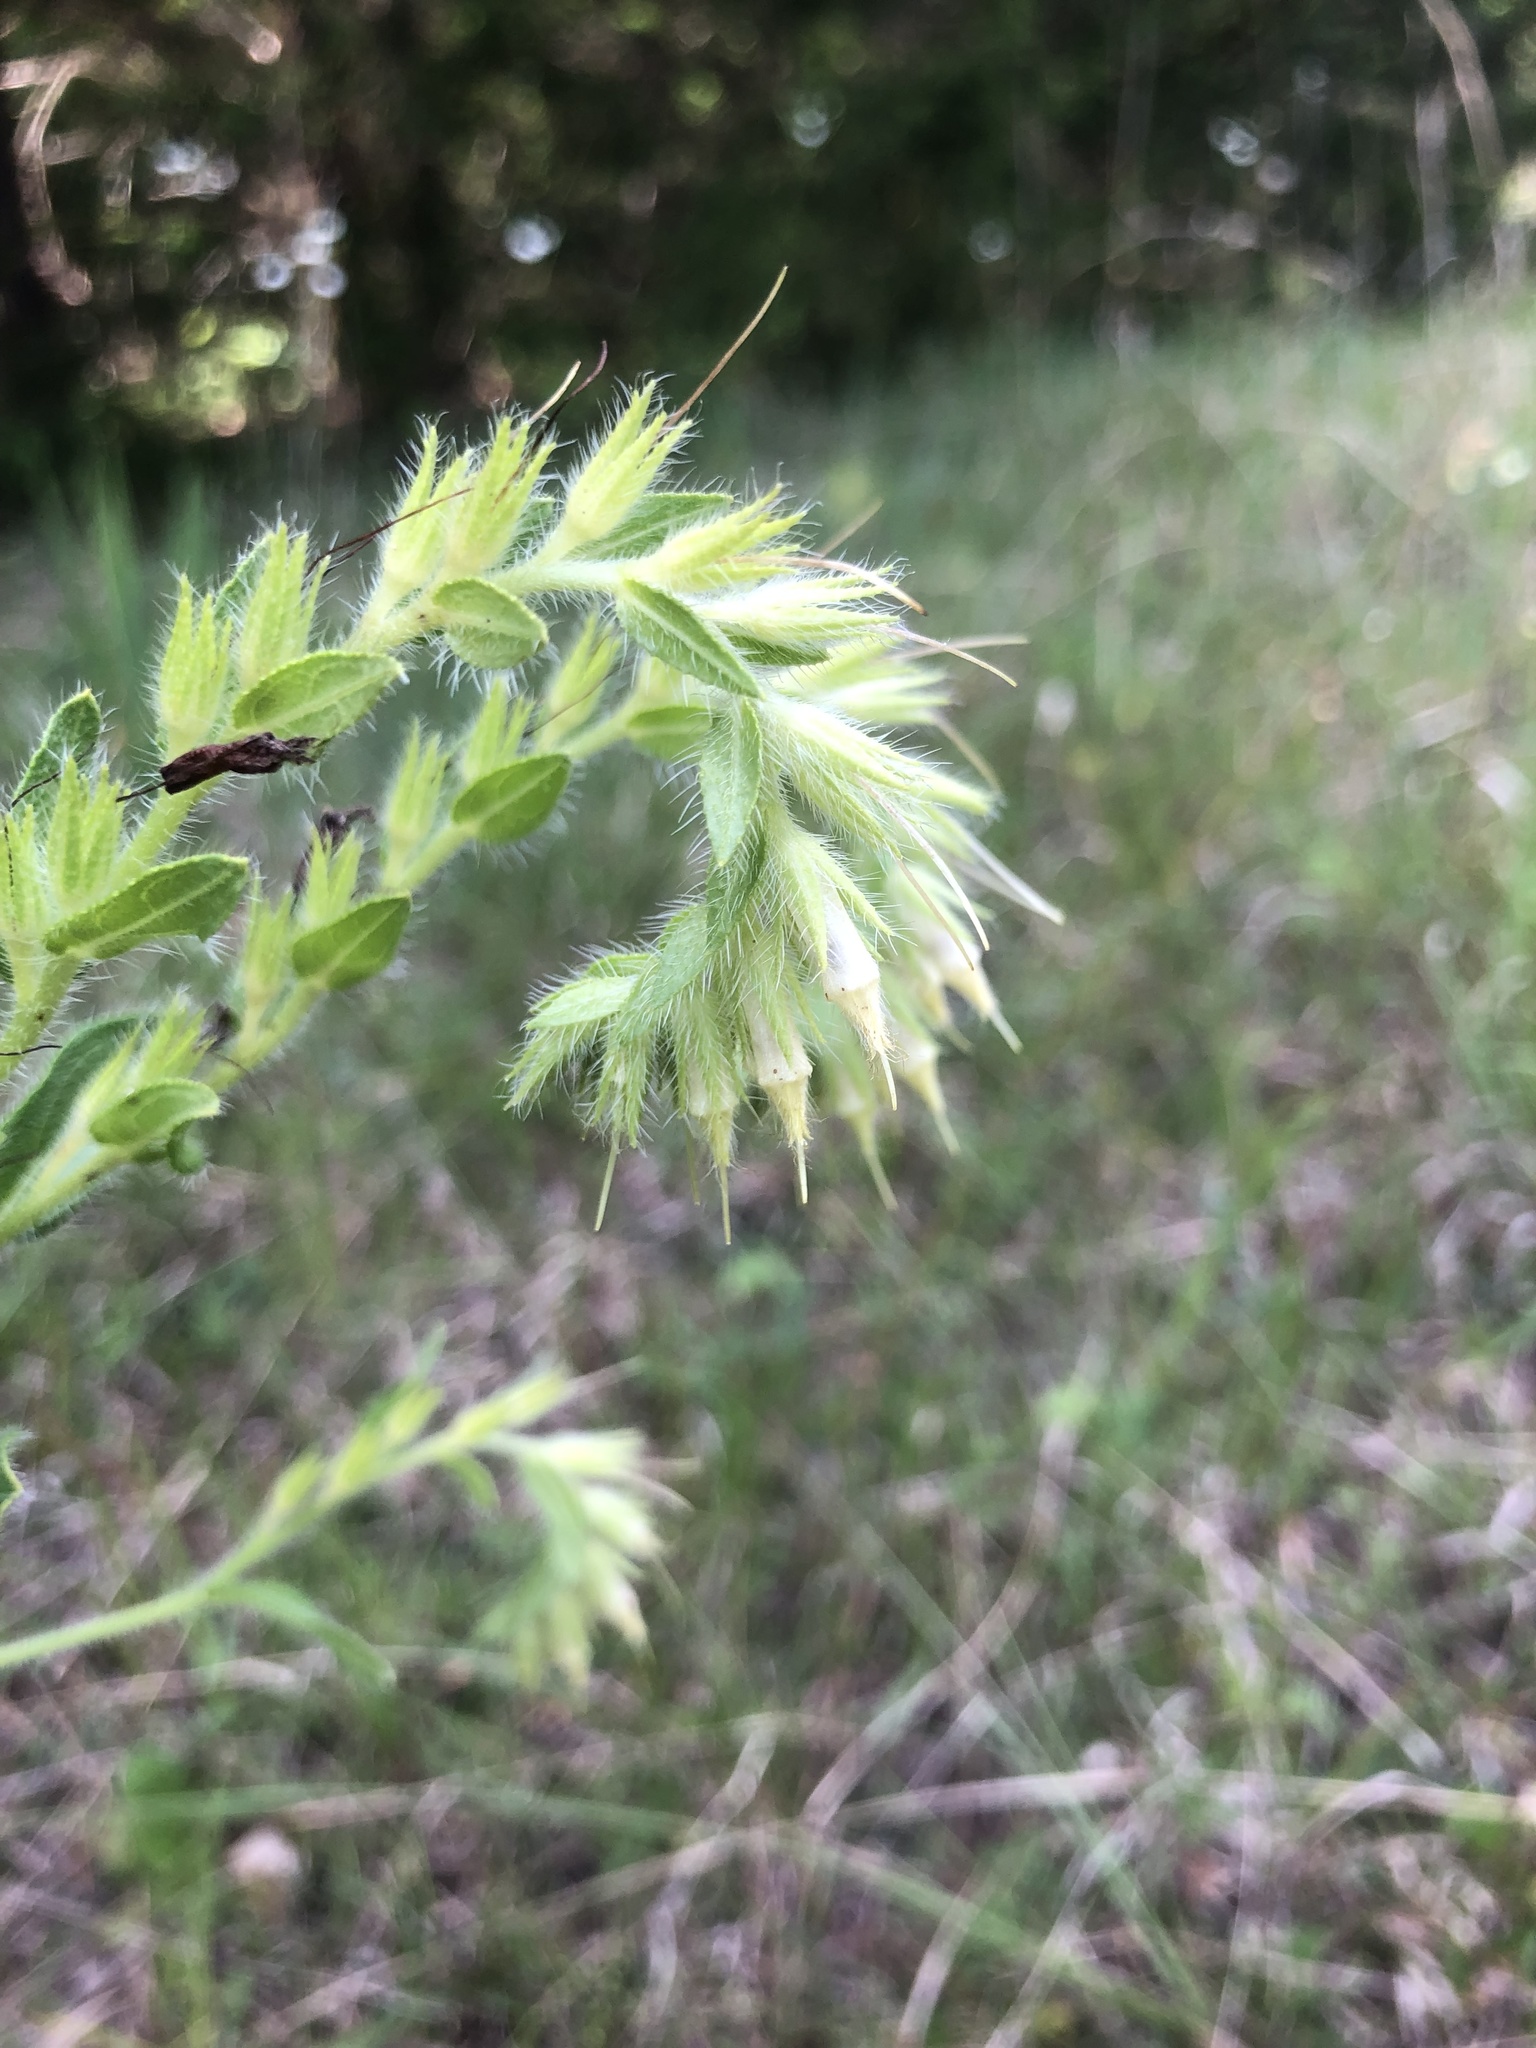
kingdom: Plantae
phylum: Tracheophyta
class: Magnoliopsida
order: Boraginales
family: Boraginaceae
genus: Lithospermum
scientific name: Lithospermum virginianum
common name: Eastern false gromwell
